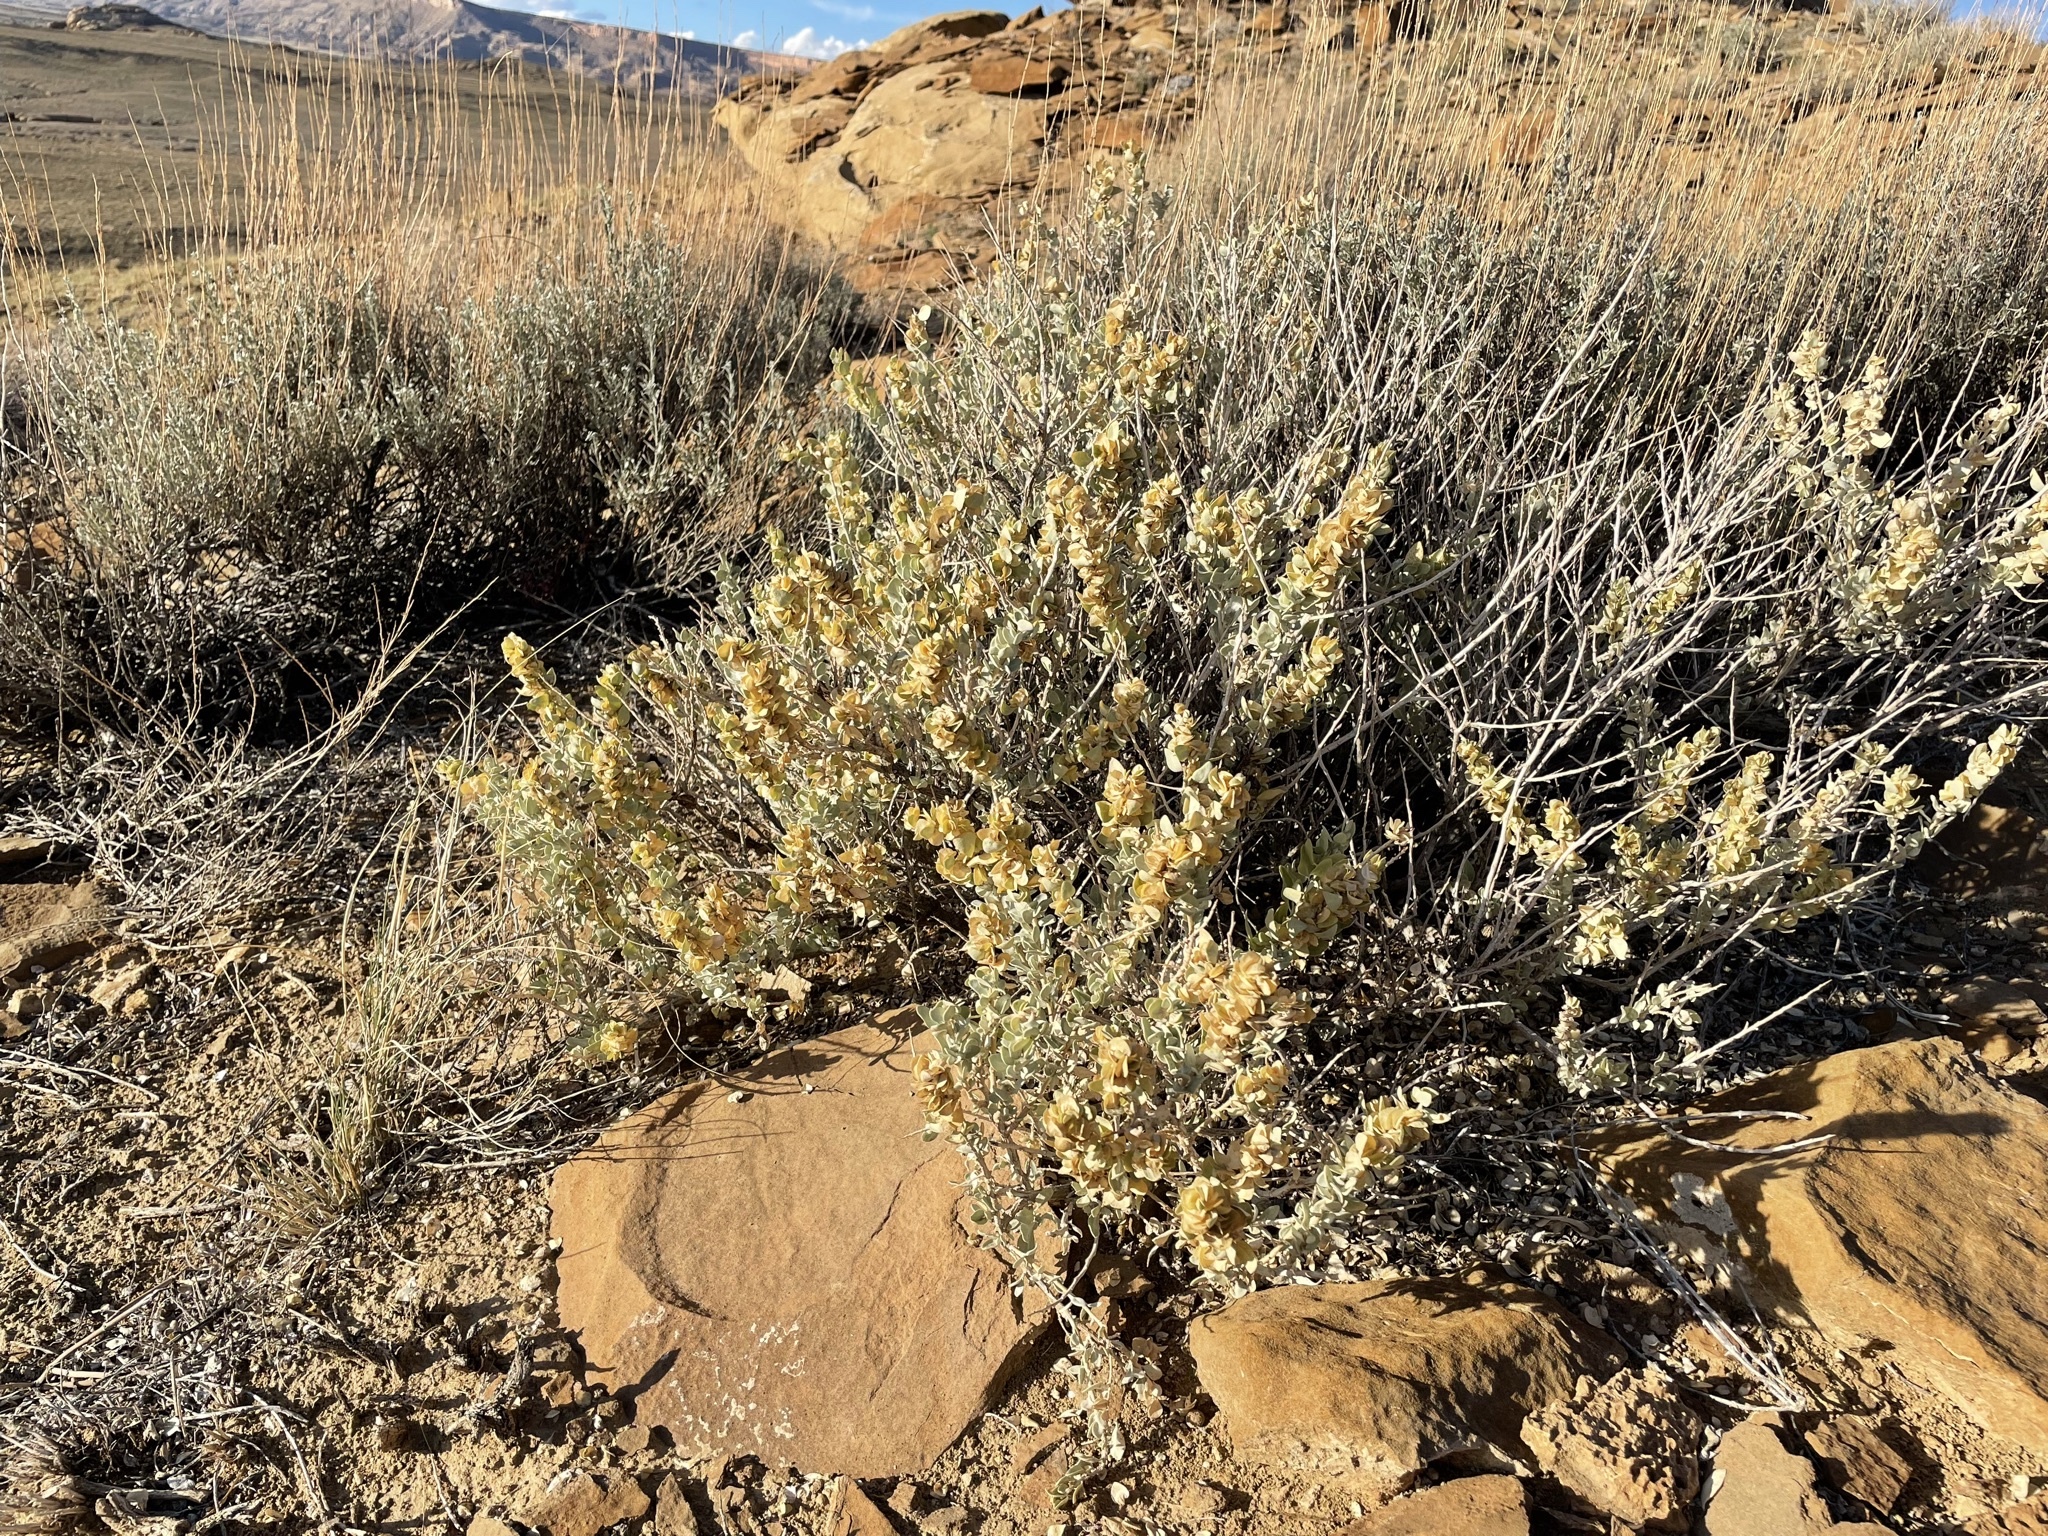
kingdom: Plantae
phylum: Tracheophyta
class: Magnoliopsida
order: Caryophyllales
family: Amaranthaceae
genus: Atriplex
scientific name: Atriplex confertifolia
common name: Shadscale
